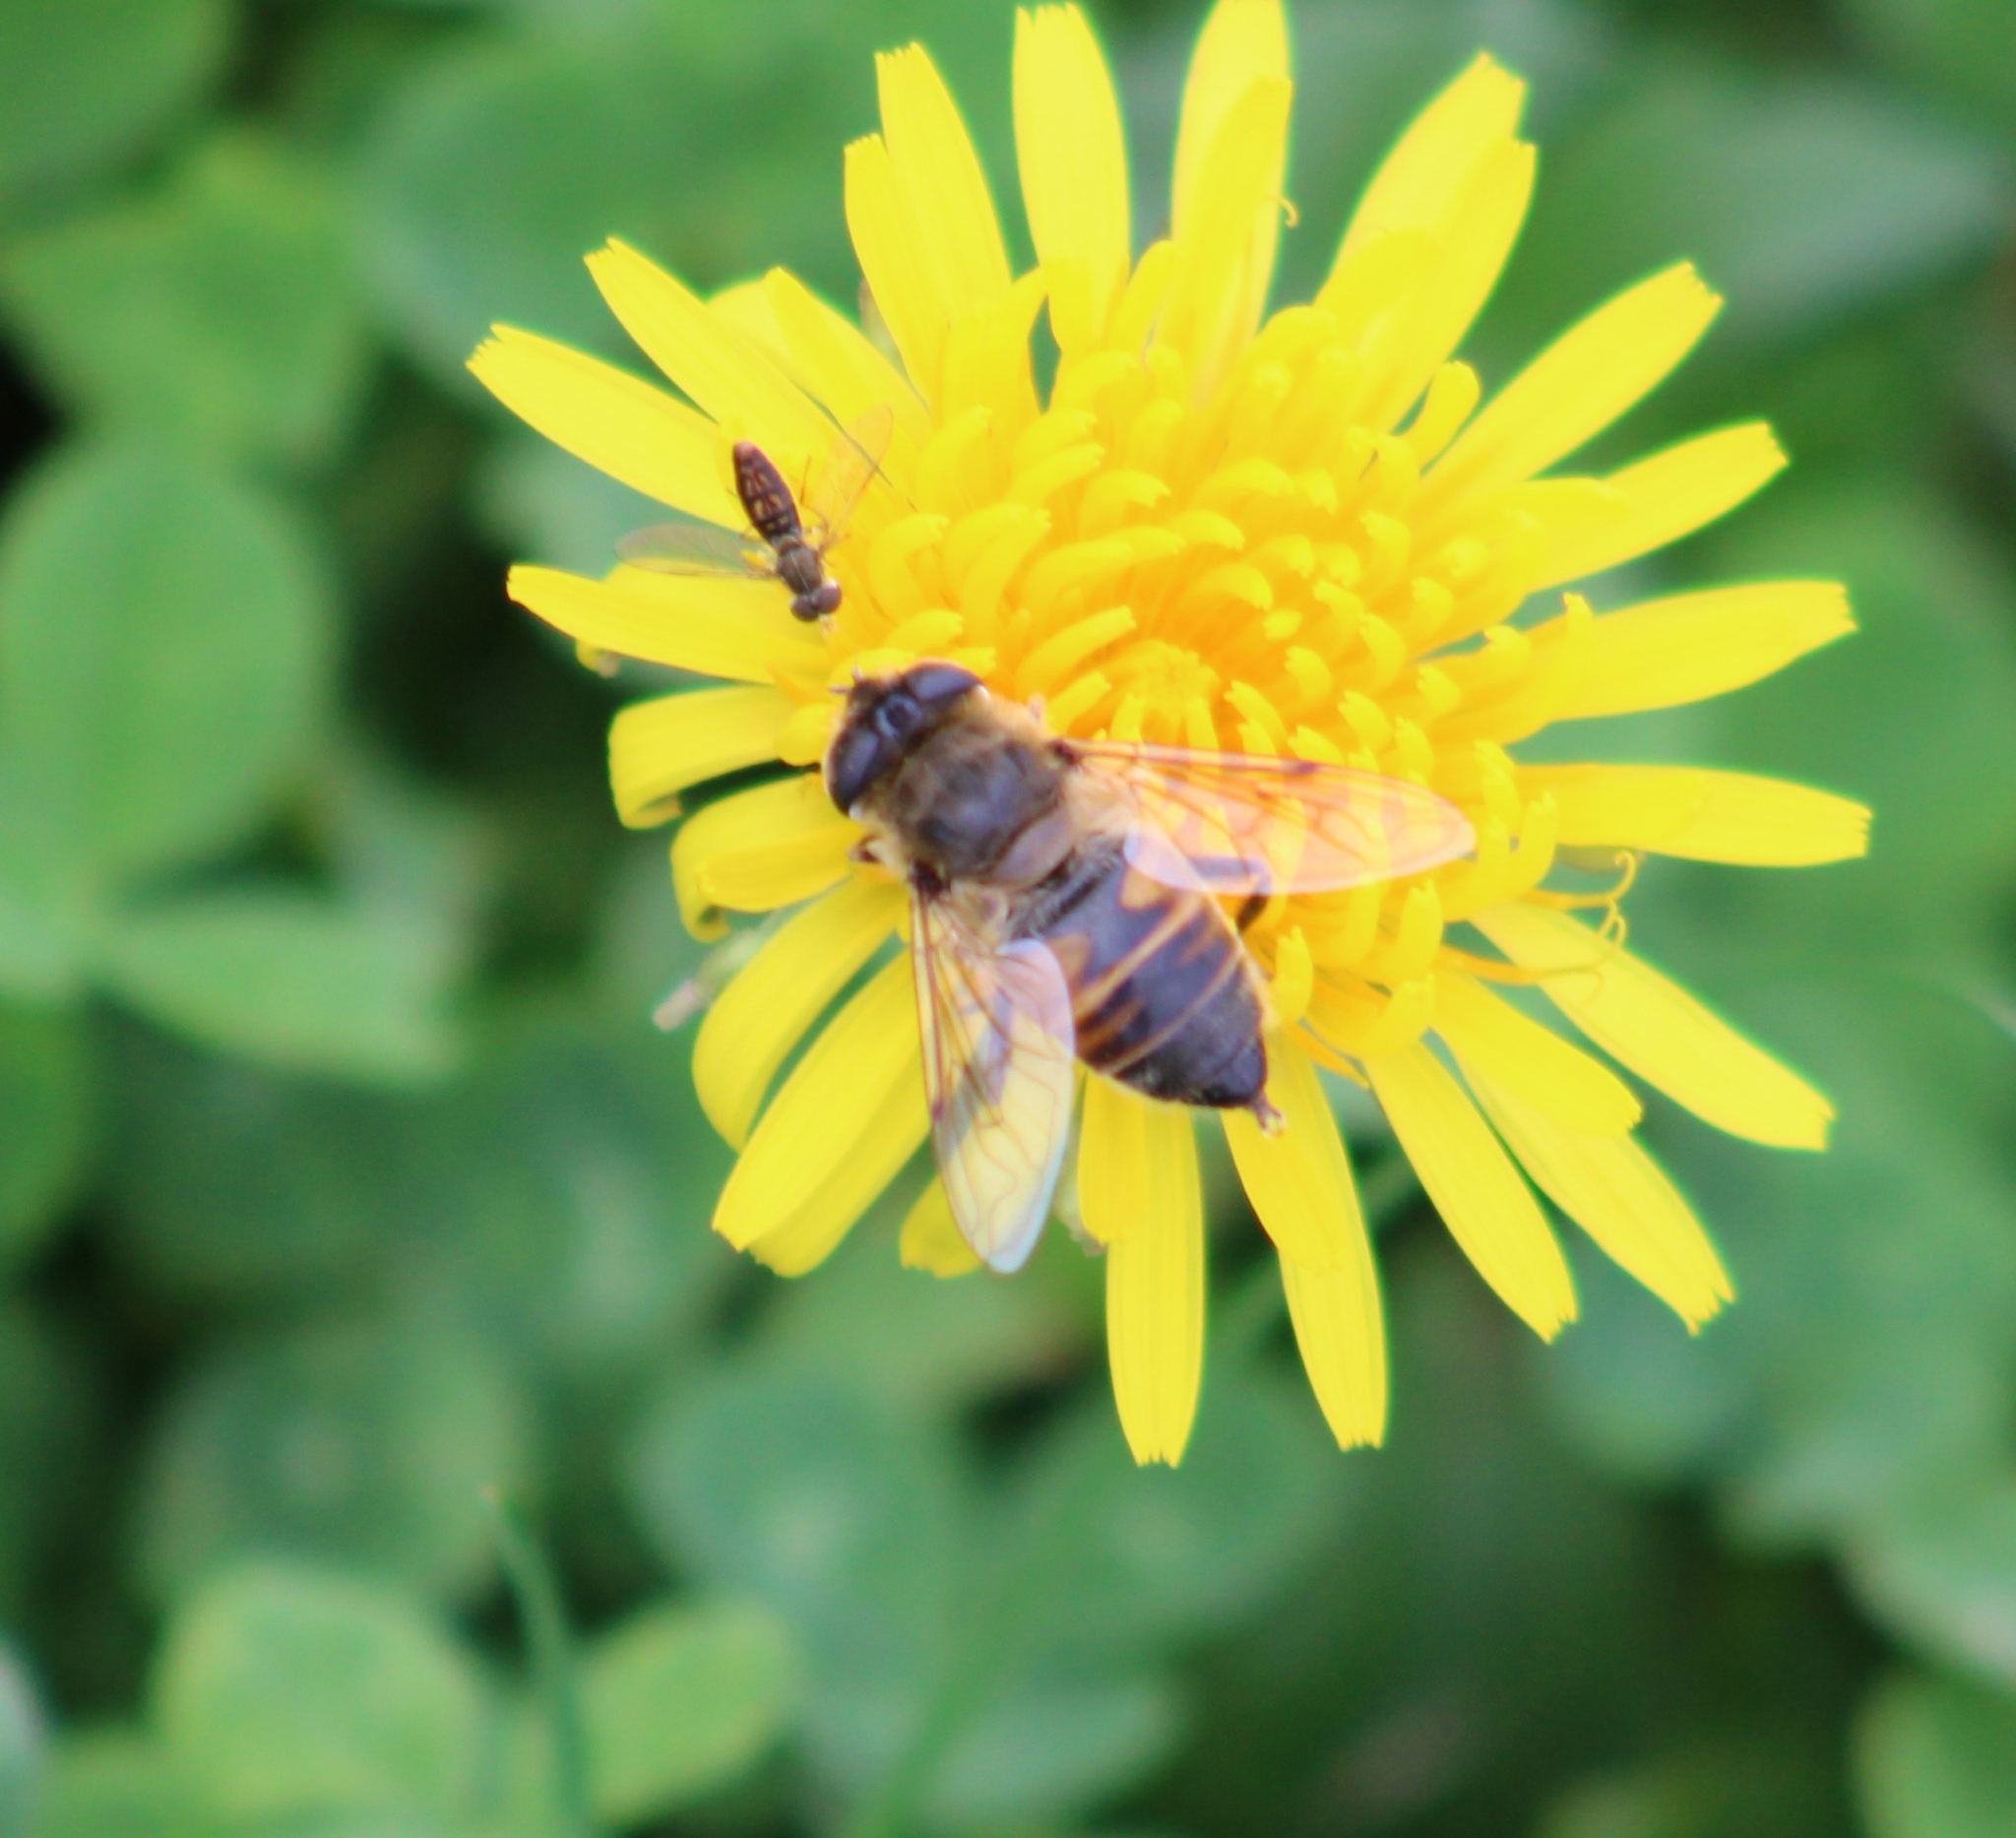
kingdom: Animalia
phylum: Arthropoda
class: Insecta
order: Diptera
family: Syrphidae
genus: Eristalis
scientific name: Eristalis tenax
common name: Drone fly
